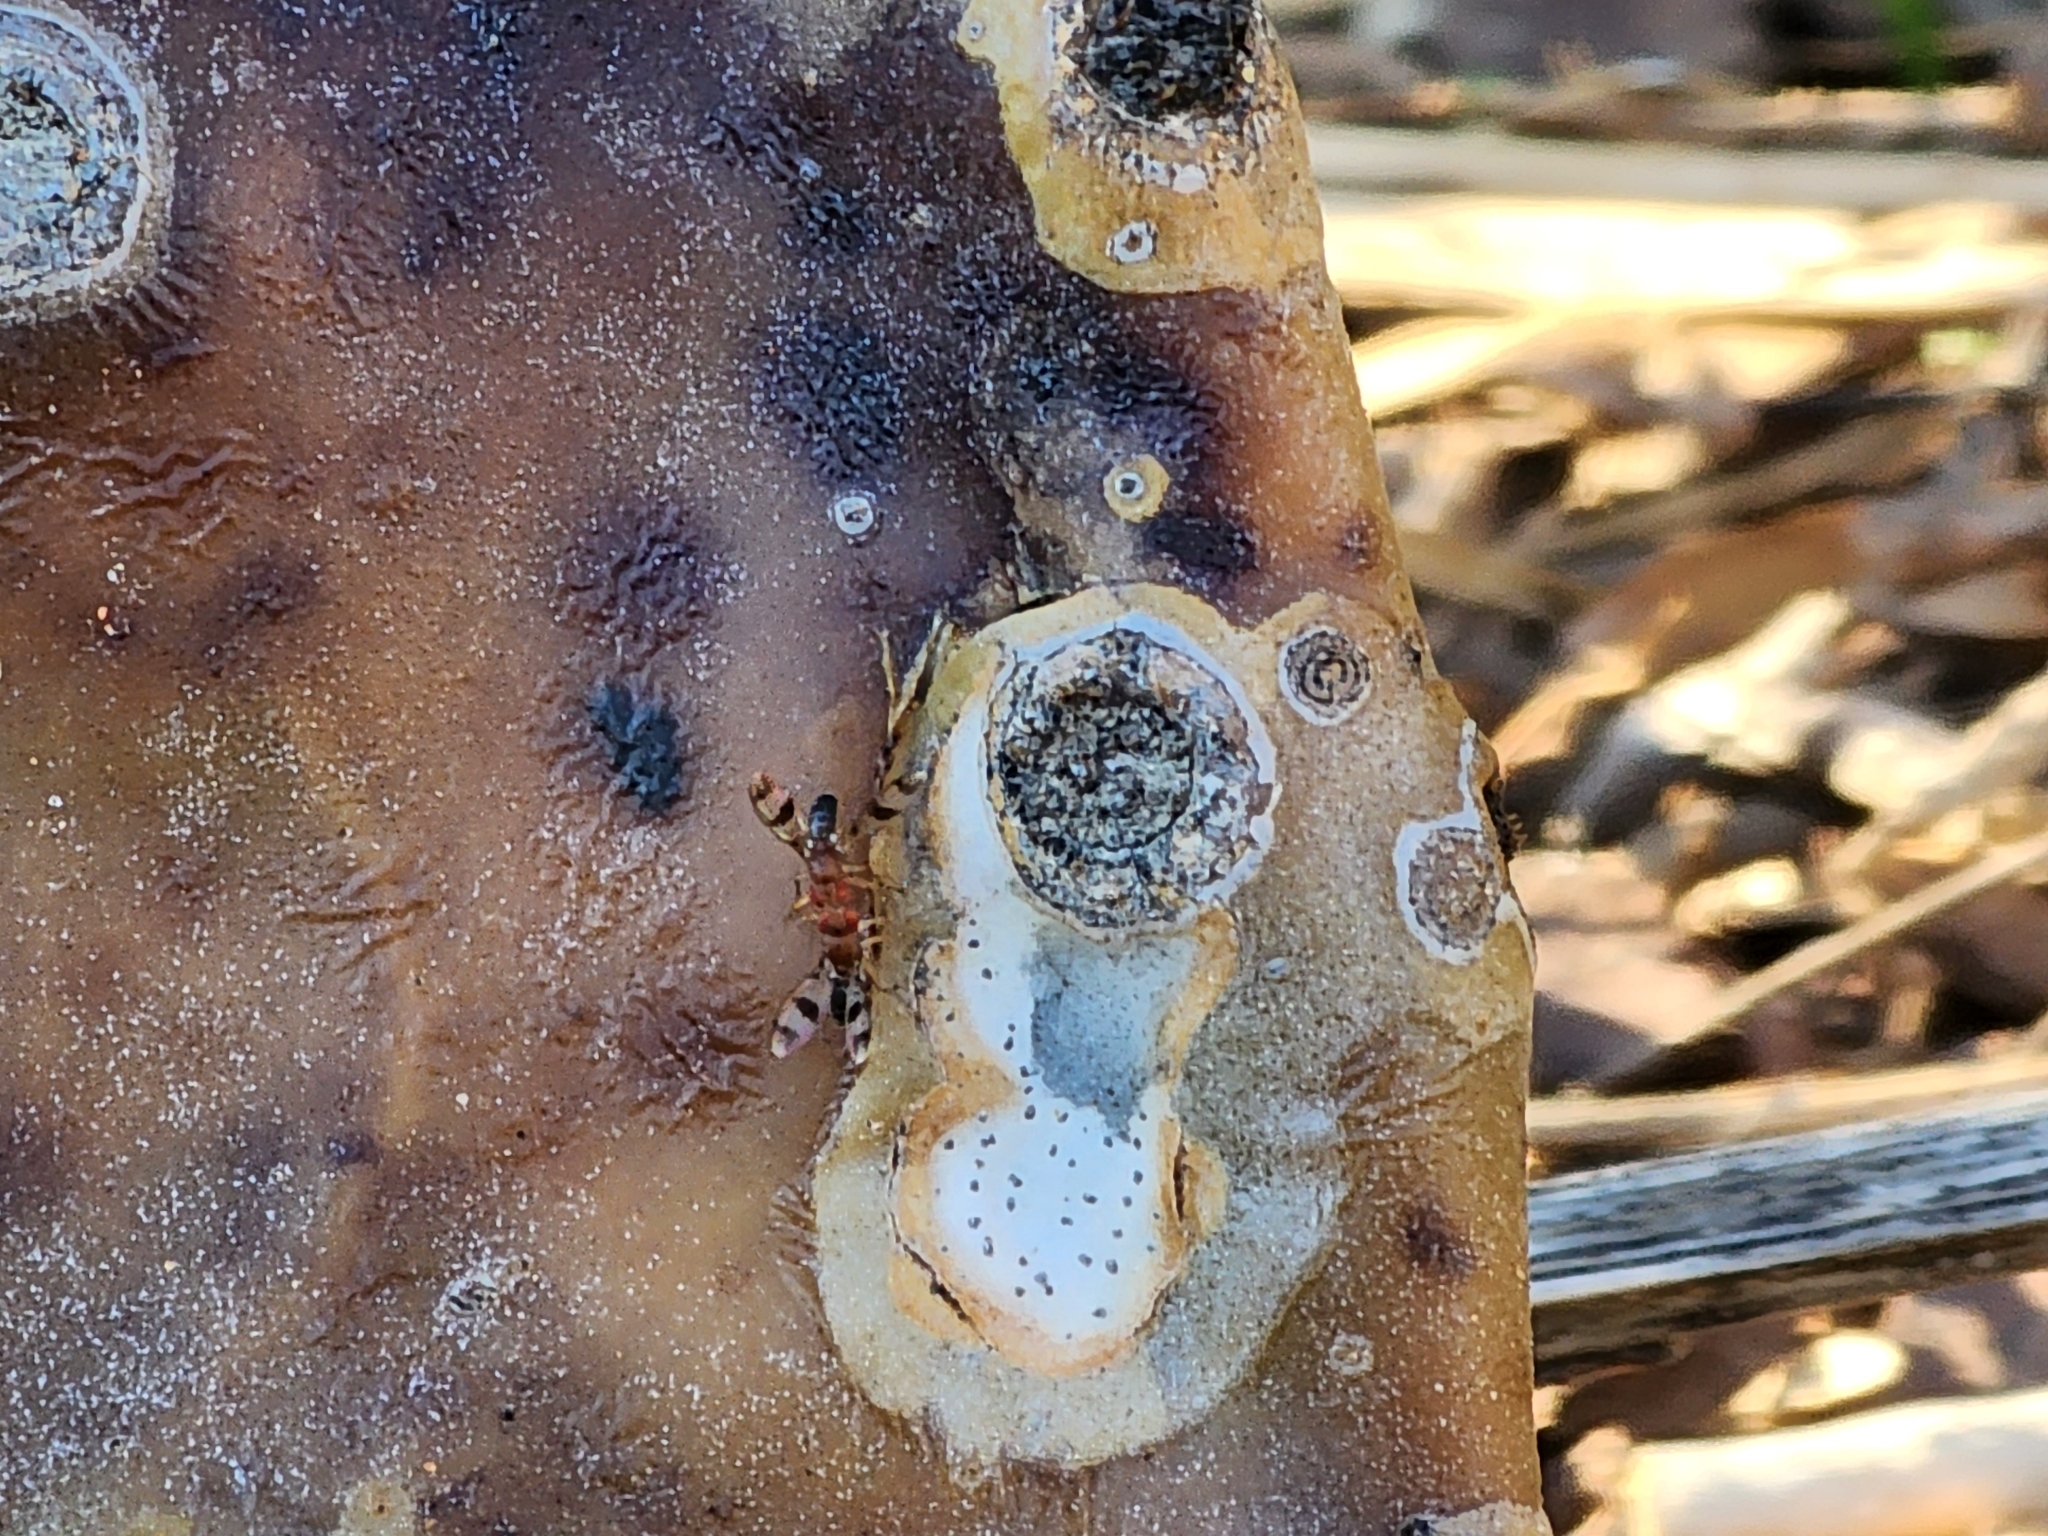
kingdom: Animalia
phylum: Arthropoda
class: Insecta
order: Diptera
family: Drosophilidae
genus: Chymomyza
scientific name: Chymomyza amoena
